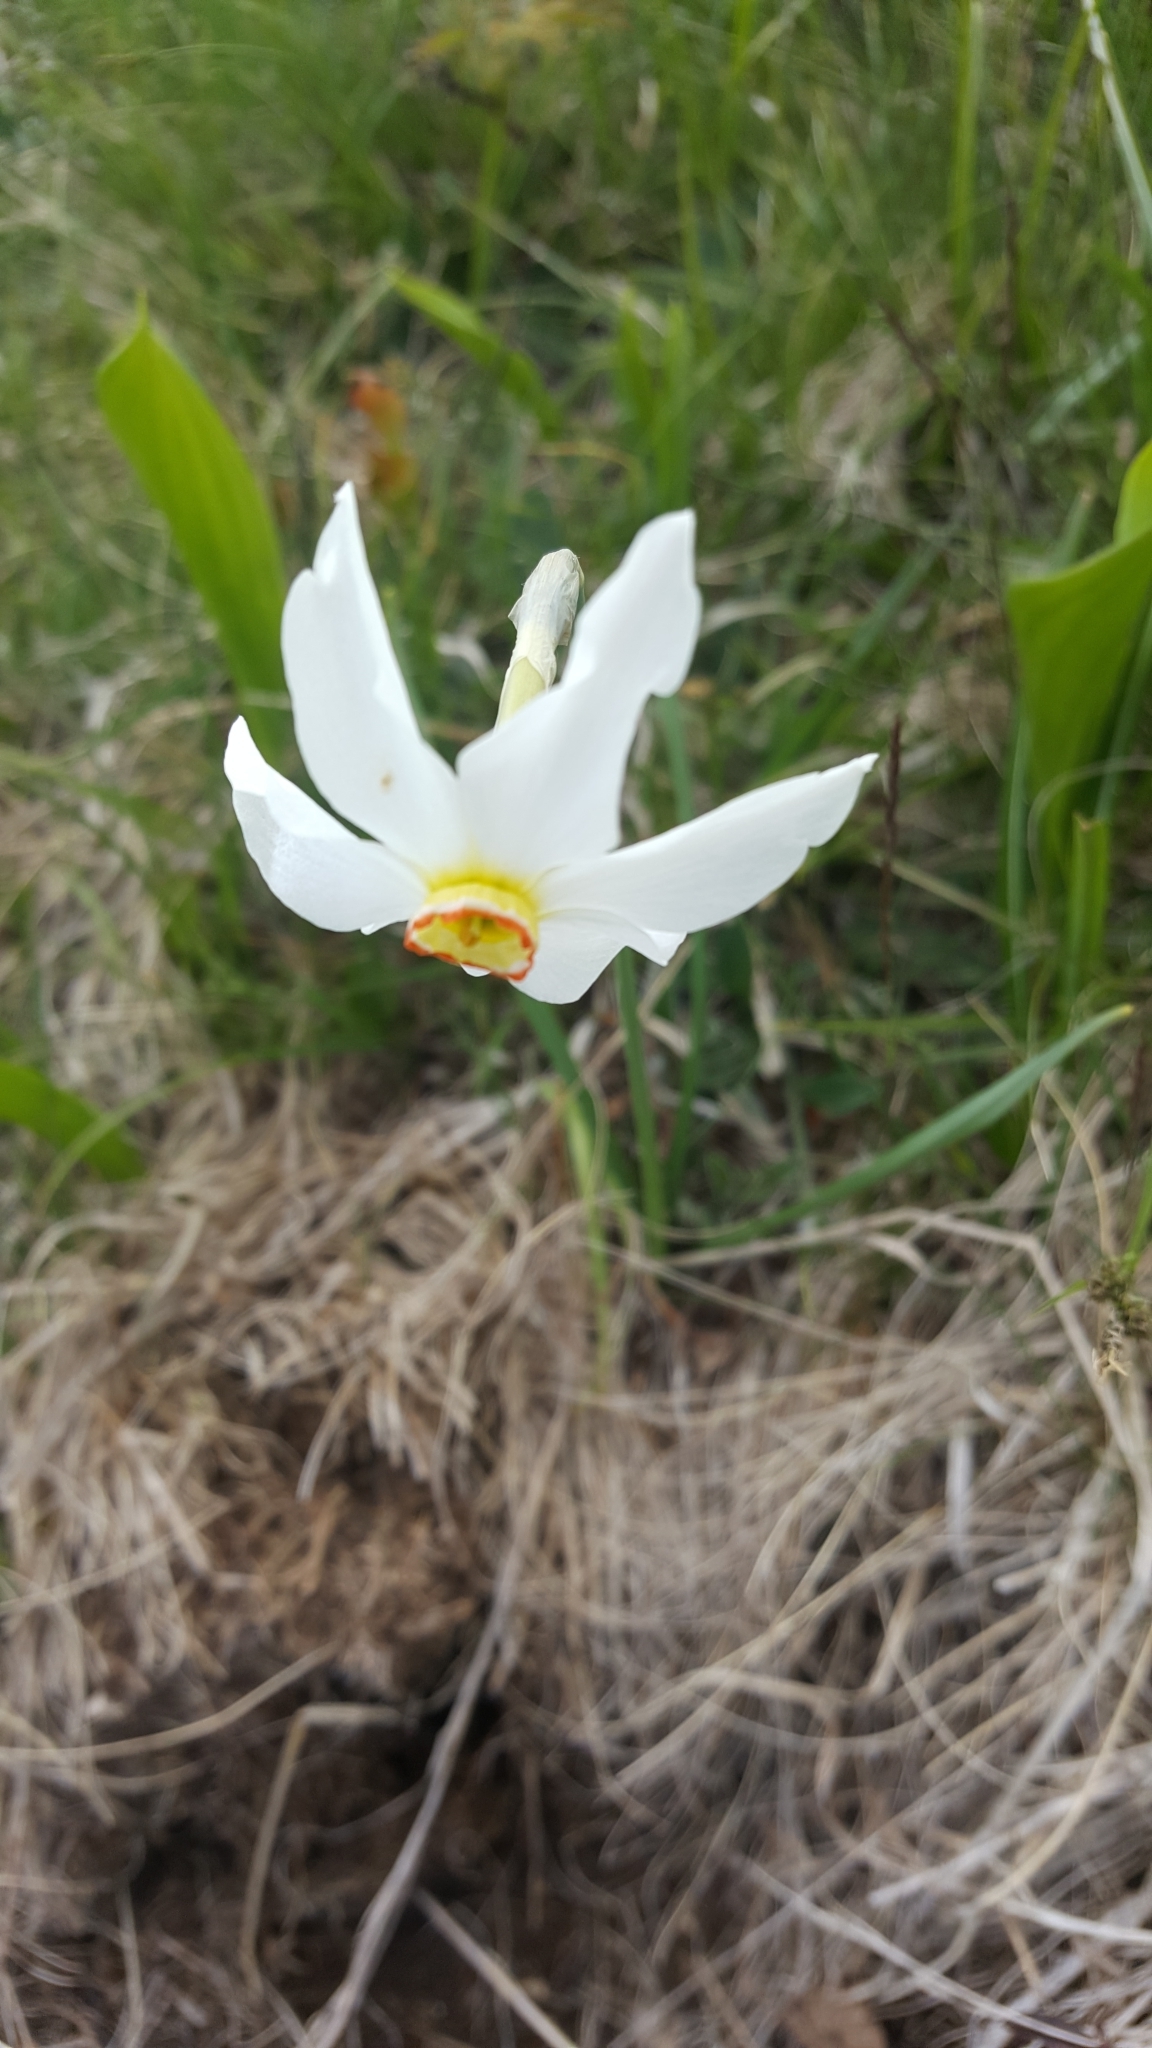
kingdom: Plantae
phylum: Tracheophyta
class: Liliopsida
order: Asparagales
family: Amaryllidaceae
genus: Narcissus
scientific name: Narcissus poeticus
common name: Pheasant's-eye daffodil
